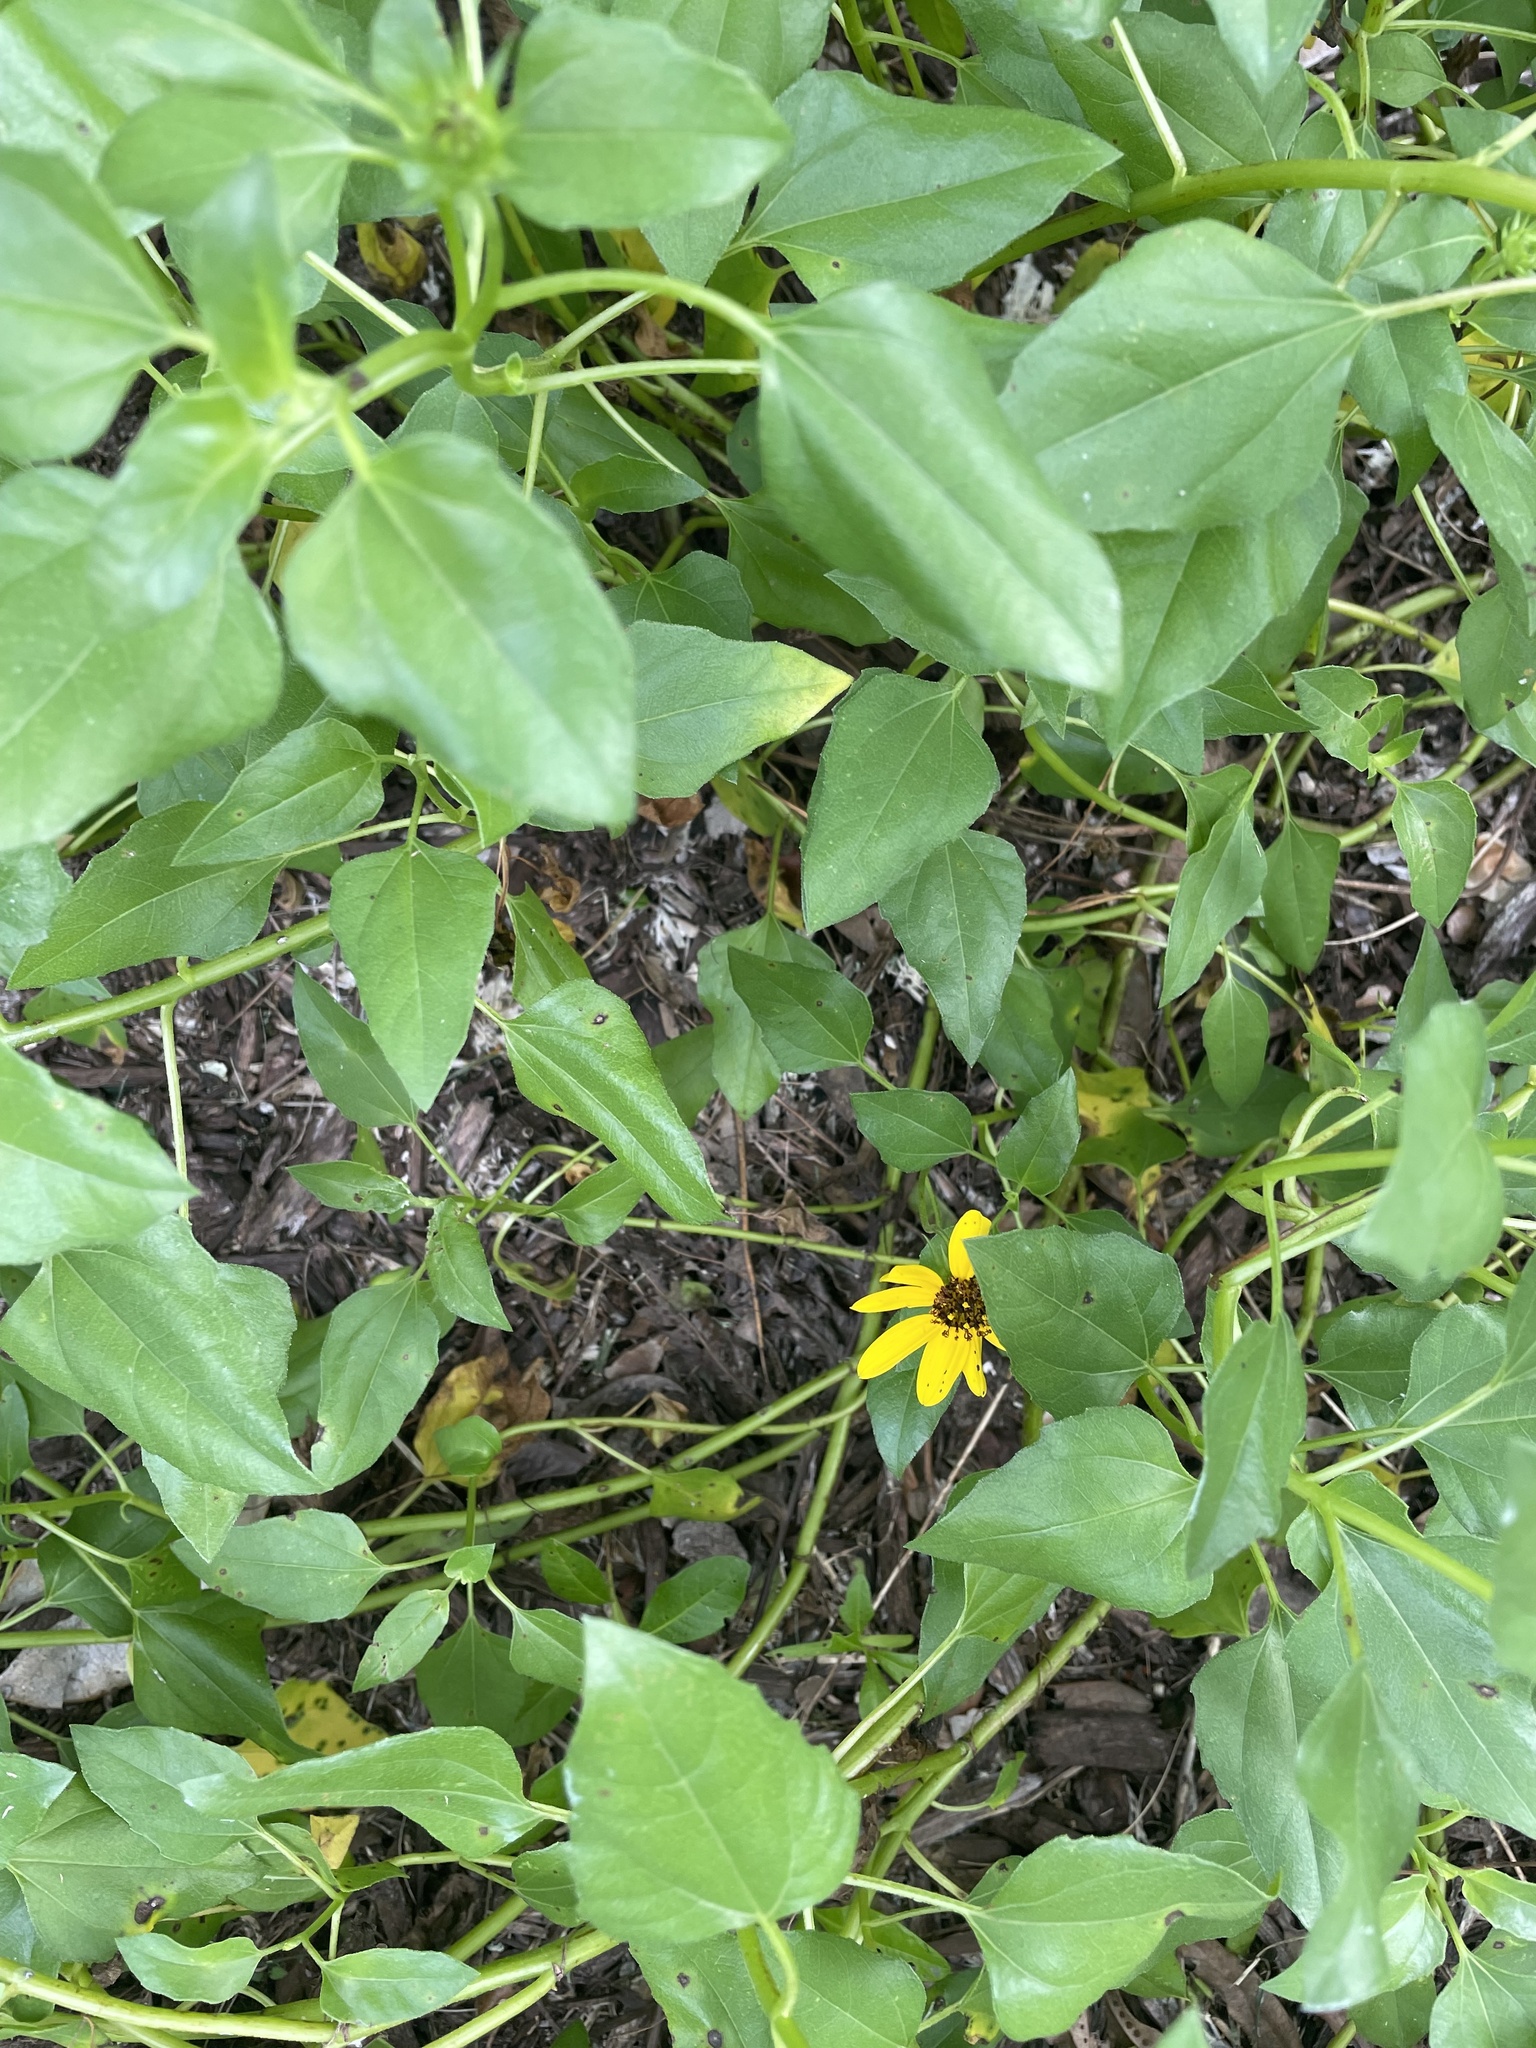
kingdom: Plantae
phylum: Tracheophyta
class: Magnoliopsida
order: Asterales
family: Asteraceae
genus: Helianthus
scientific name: Helianthus debilis
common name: Weak sunflower
